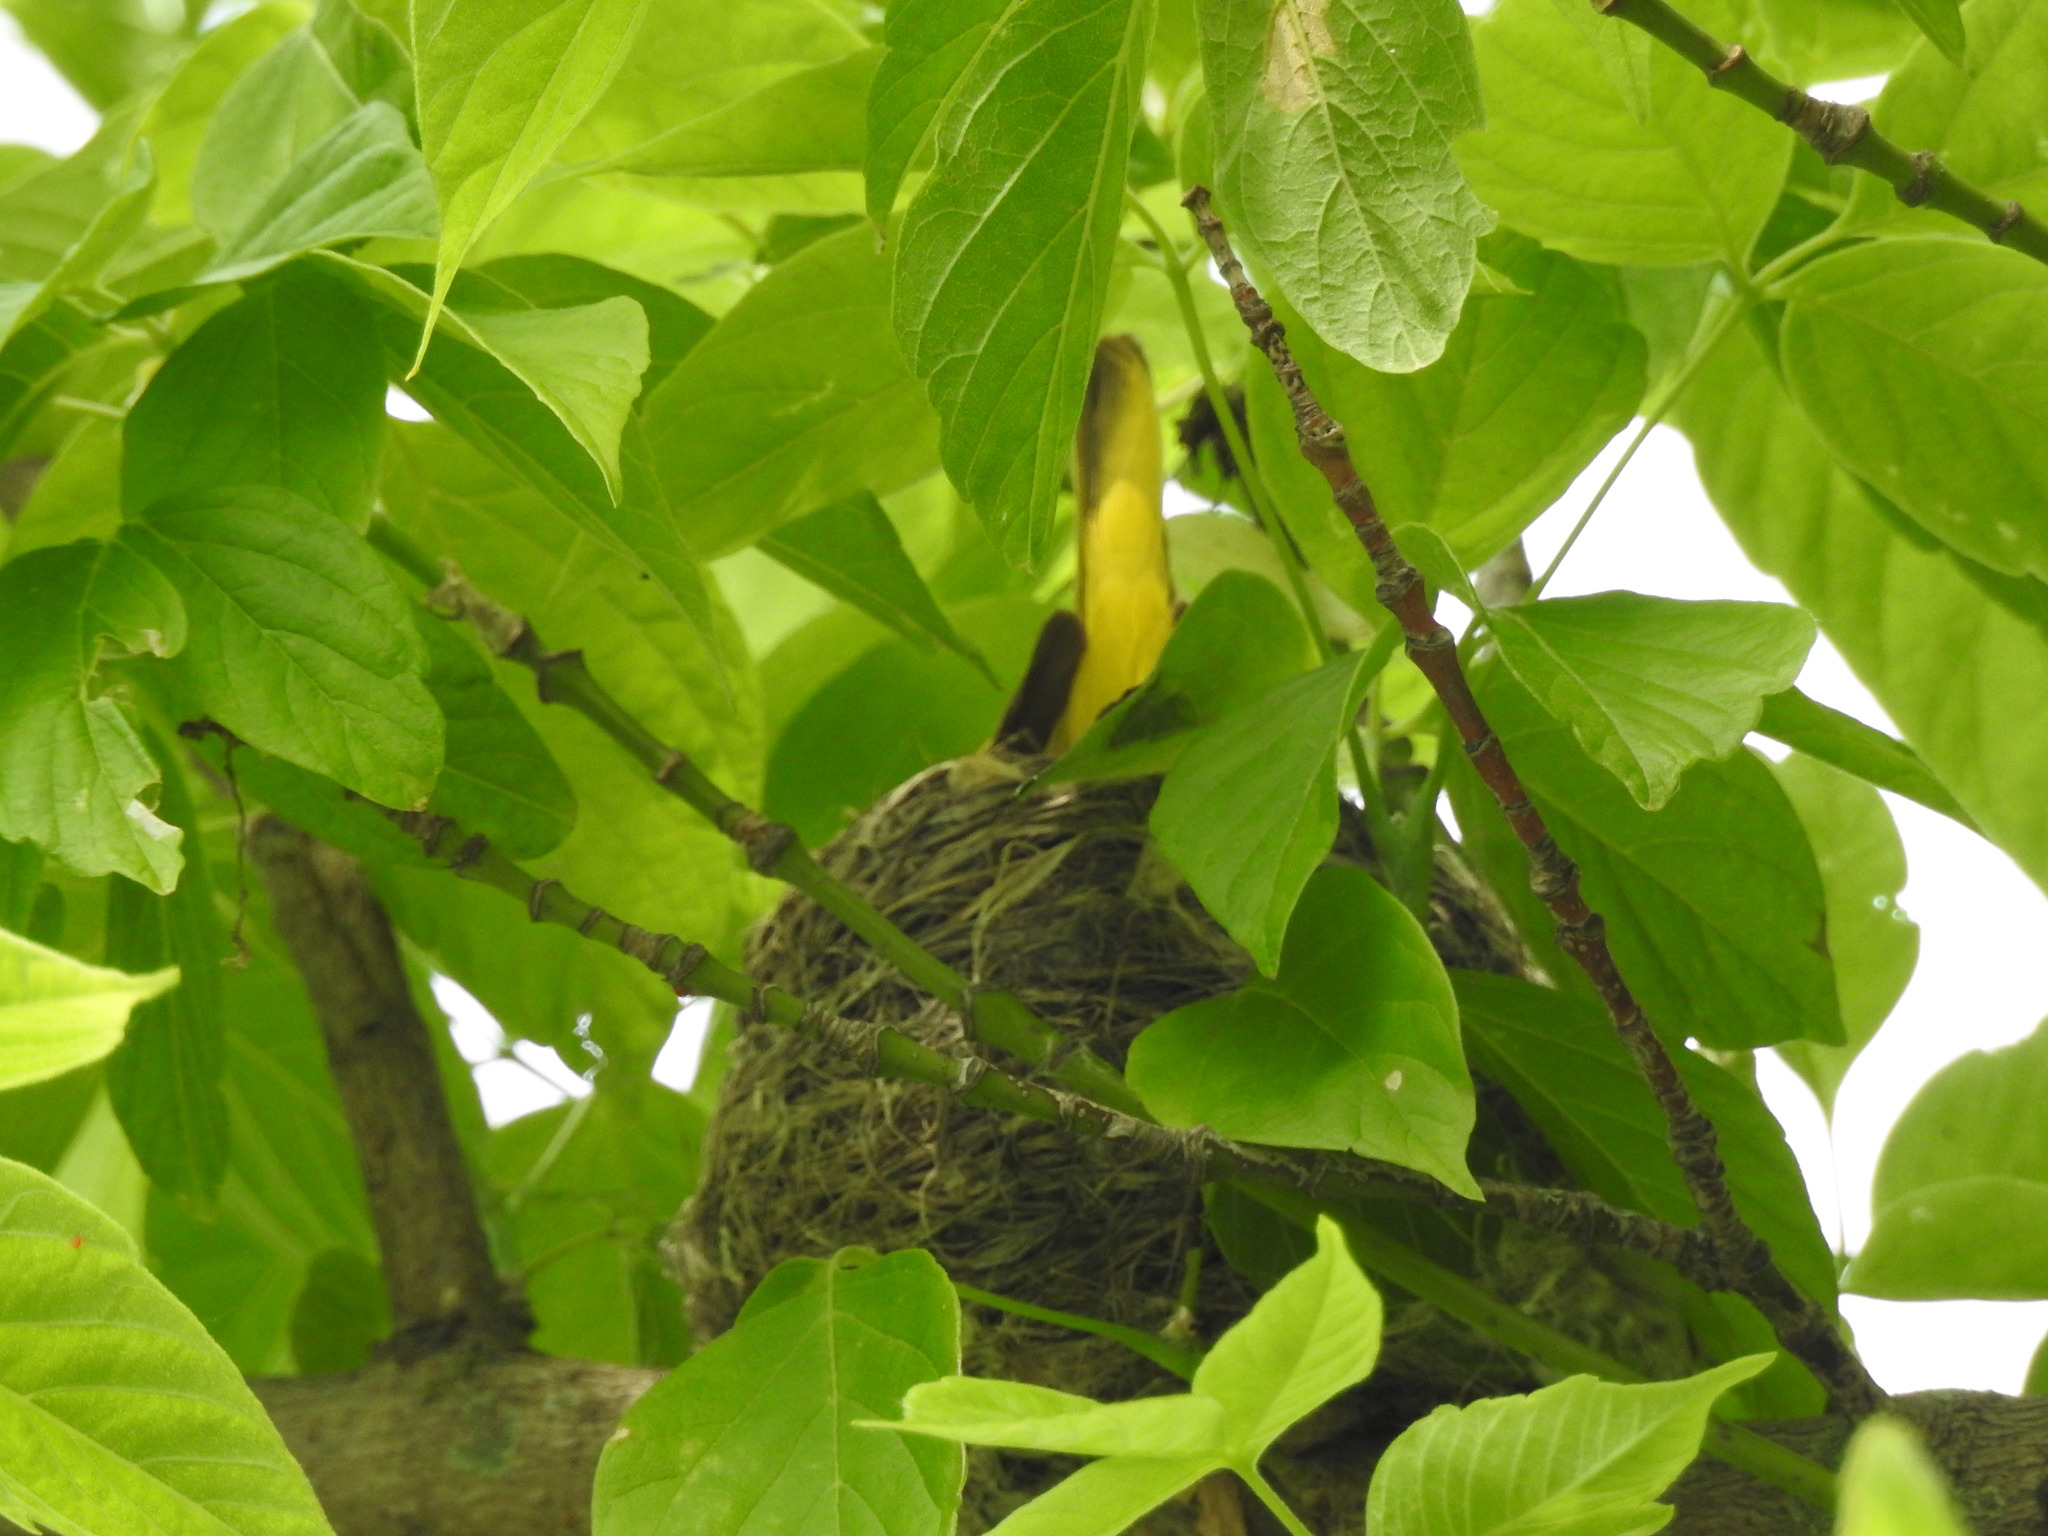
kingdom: Animalia
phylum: Chordata
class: Aves
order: Passeriformes
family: Parulidae
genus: Setophaga
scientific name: Setophaga petechia
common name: Yellow warbler
